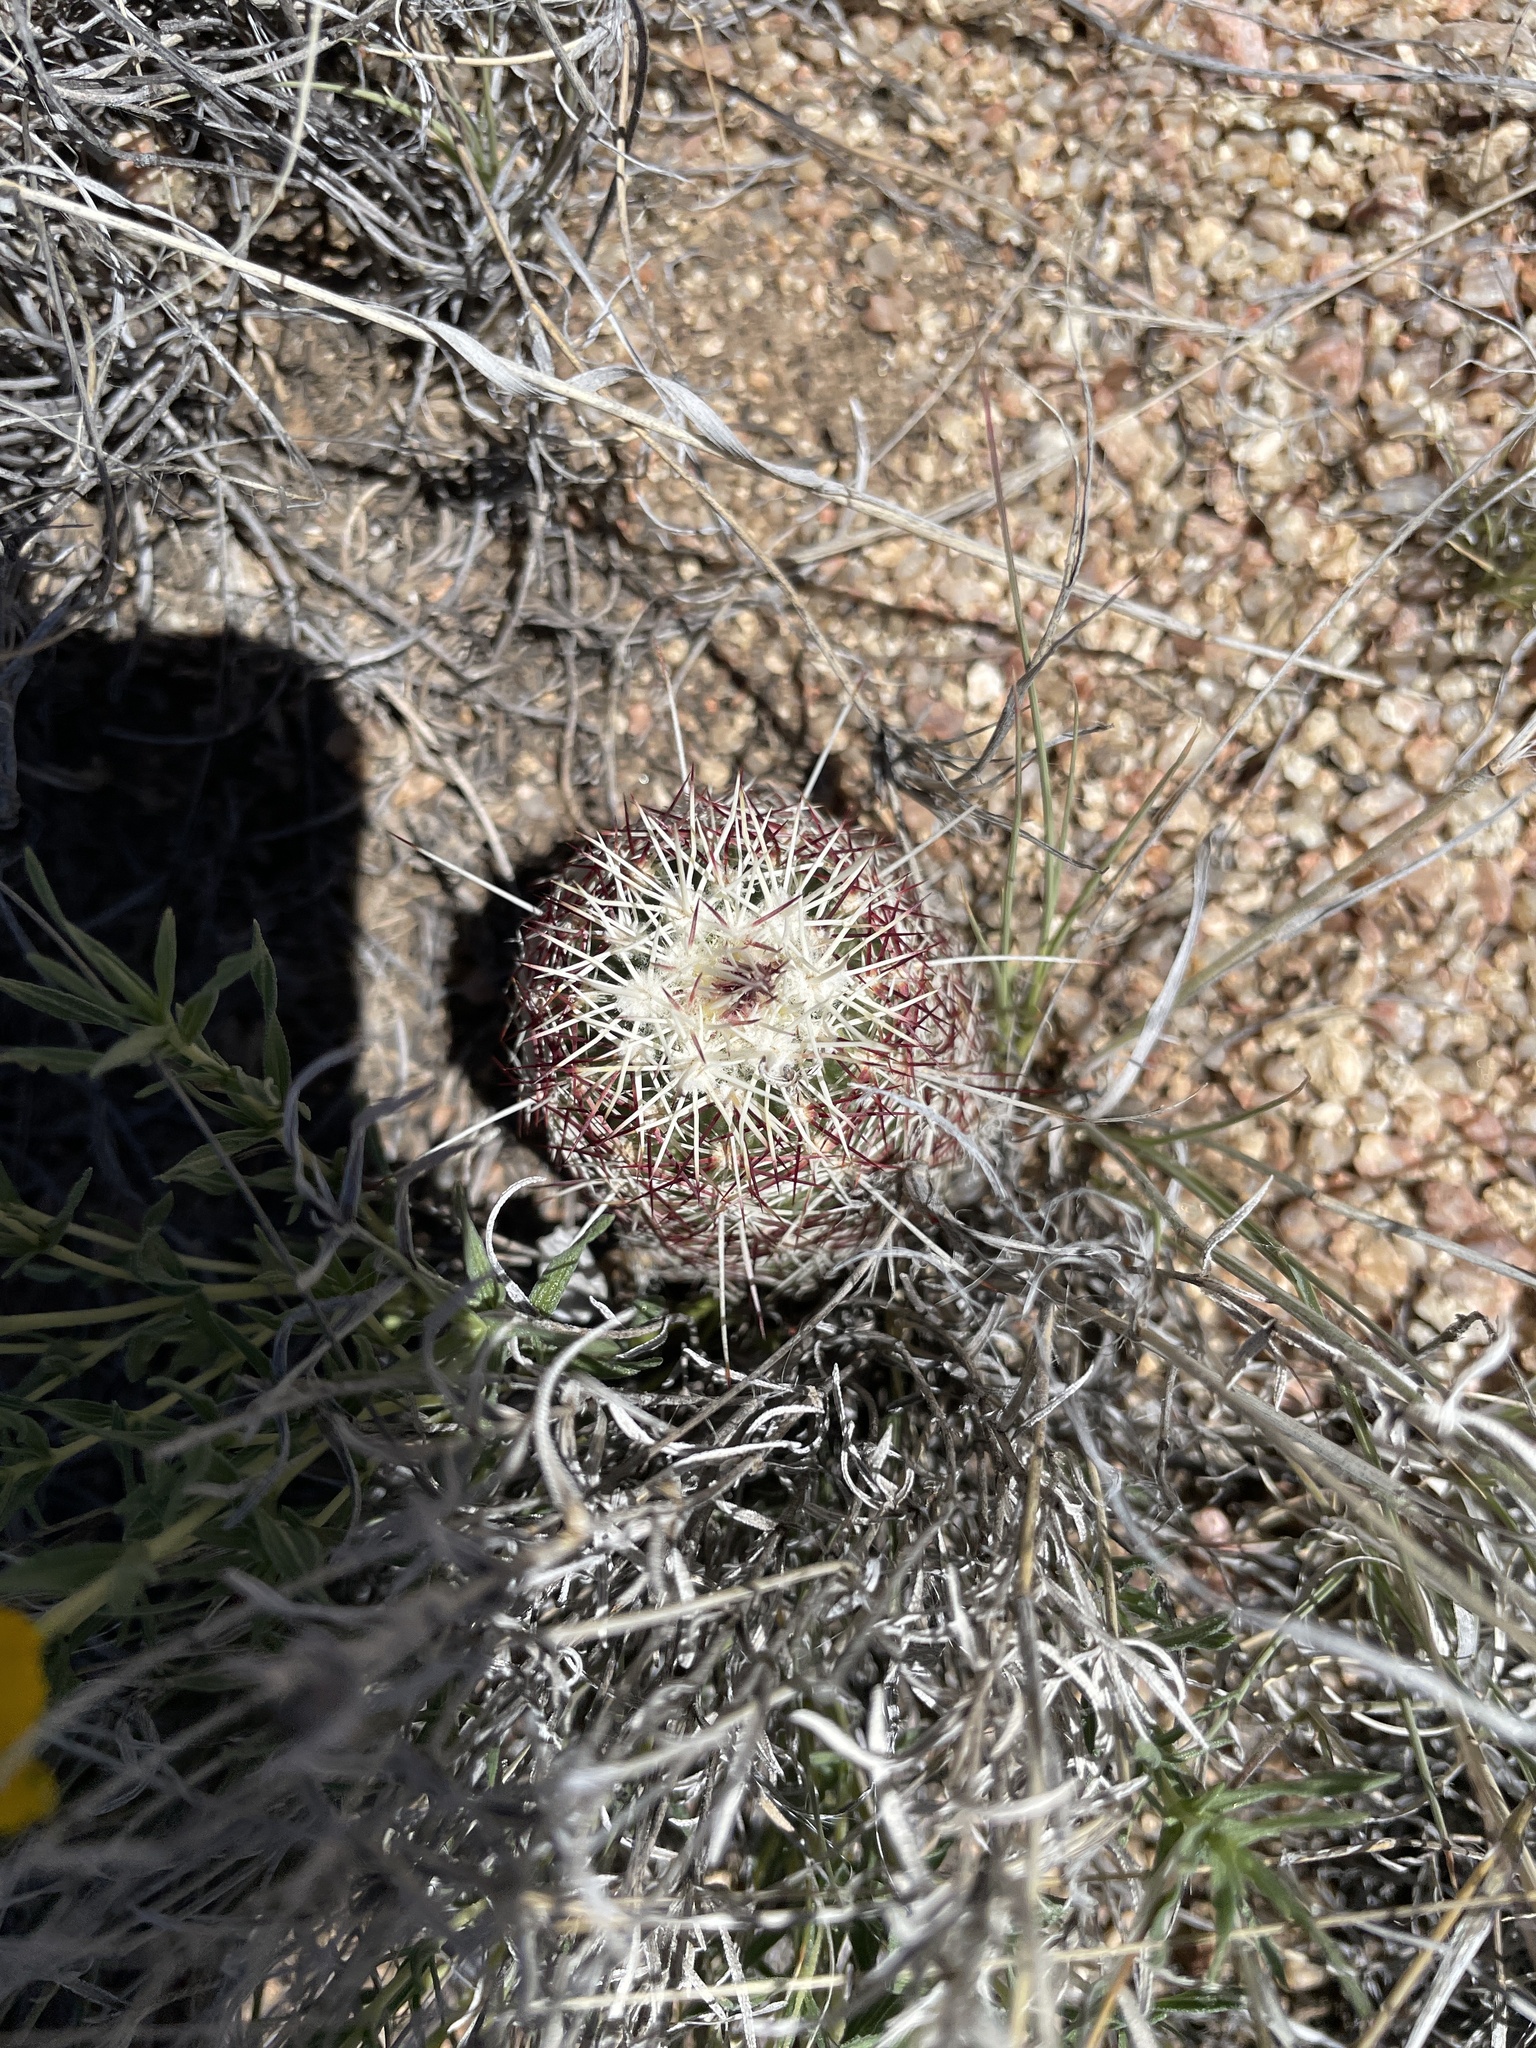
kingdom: Plantae
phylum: Tracheophyta
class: Magnoliopsida
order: Caryophyllales
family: Cactaceae
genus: Echinocereus
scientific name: Echinocereus viridiflorus
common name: Nylon hedgehog cactus
